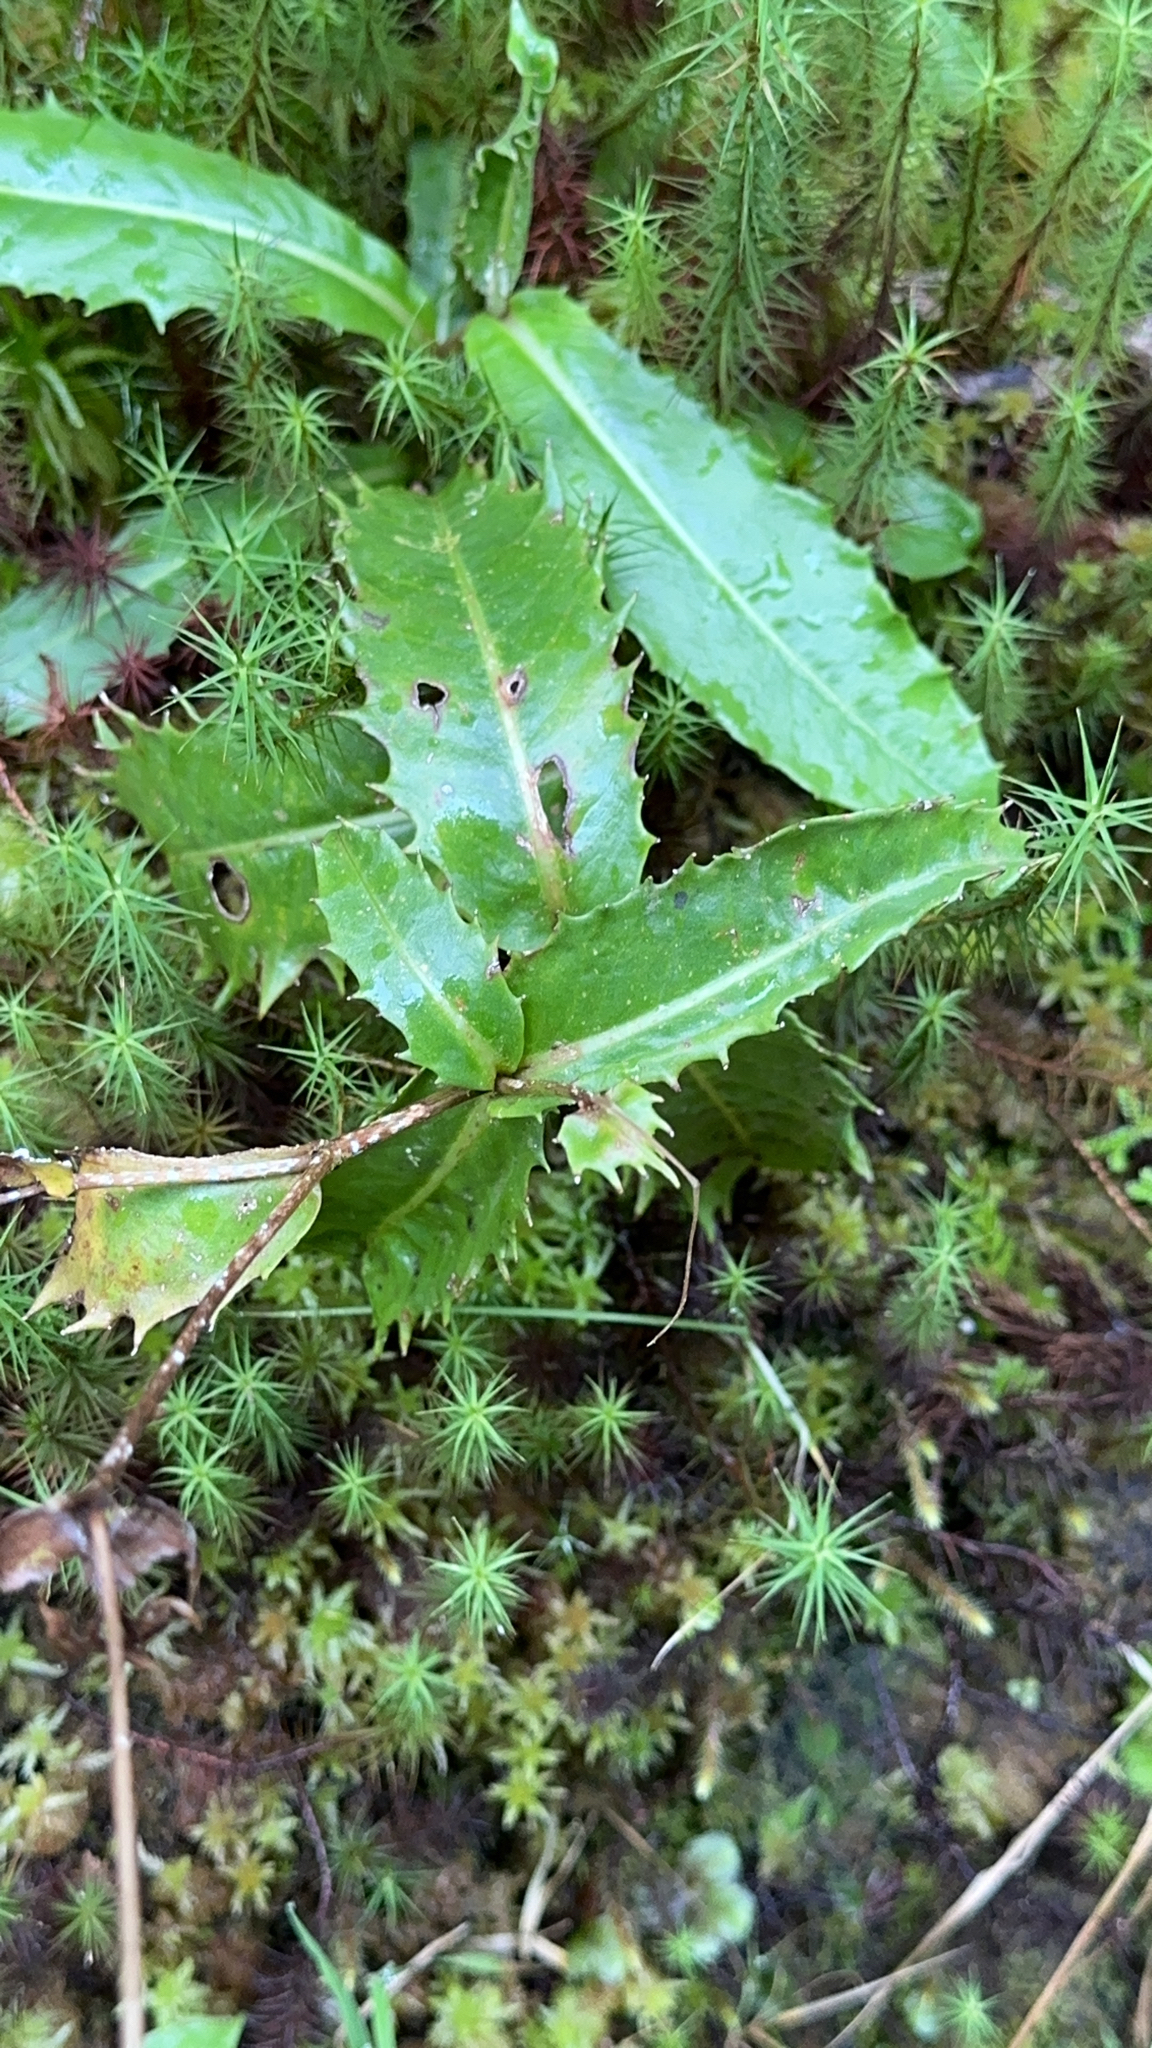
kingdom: Plantae
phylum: Tracheophyta
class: Magnoliopsida
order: Asterales
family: Asteraceae
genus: Tolpis
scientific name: Tolpis azorica
